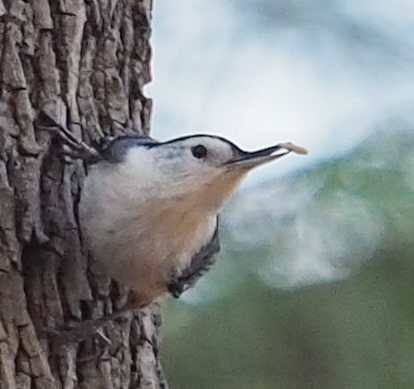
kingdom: Animalia
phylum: Chordata
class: Aves
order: Passeriformes
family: Sittidae
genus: Sitta
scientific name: Sitta carolinensis
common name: White-breasted nuthatch
